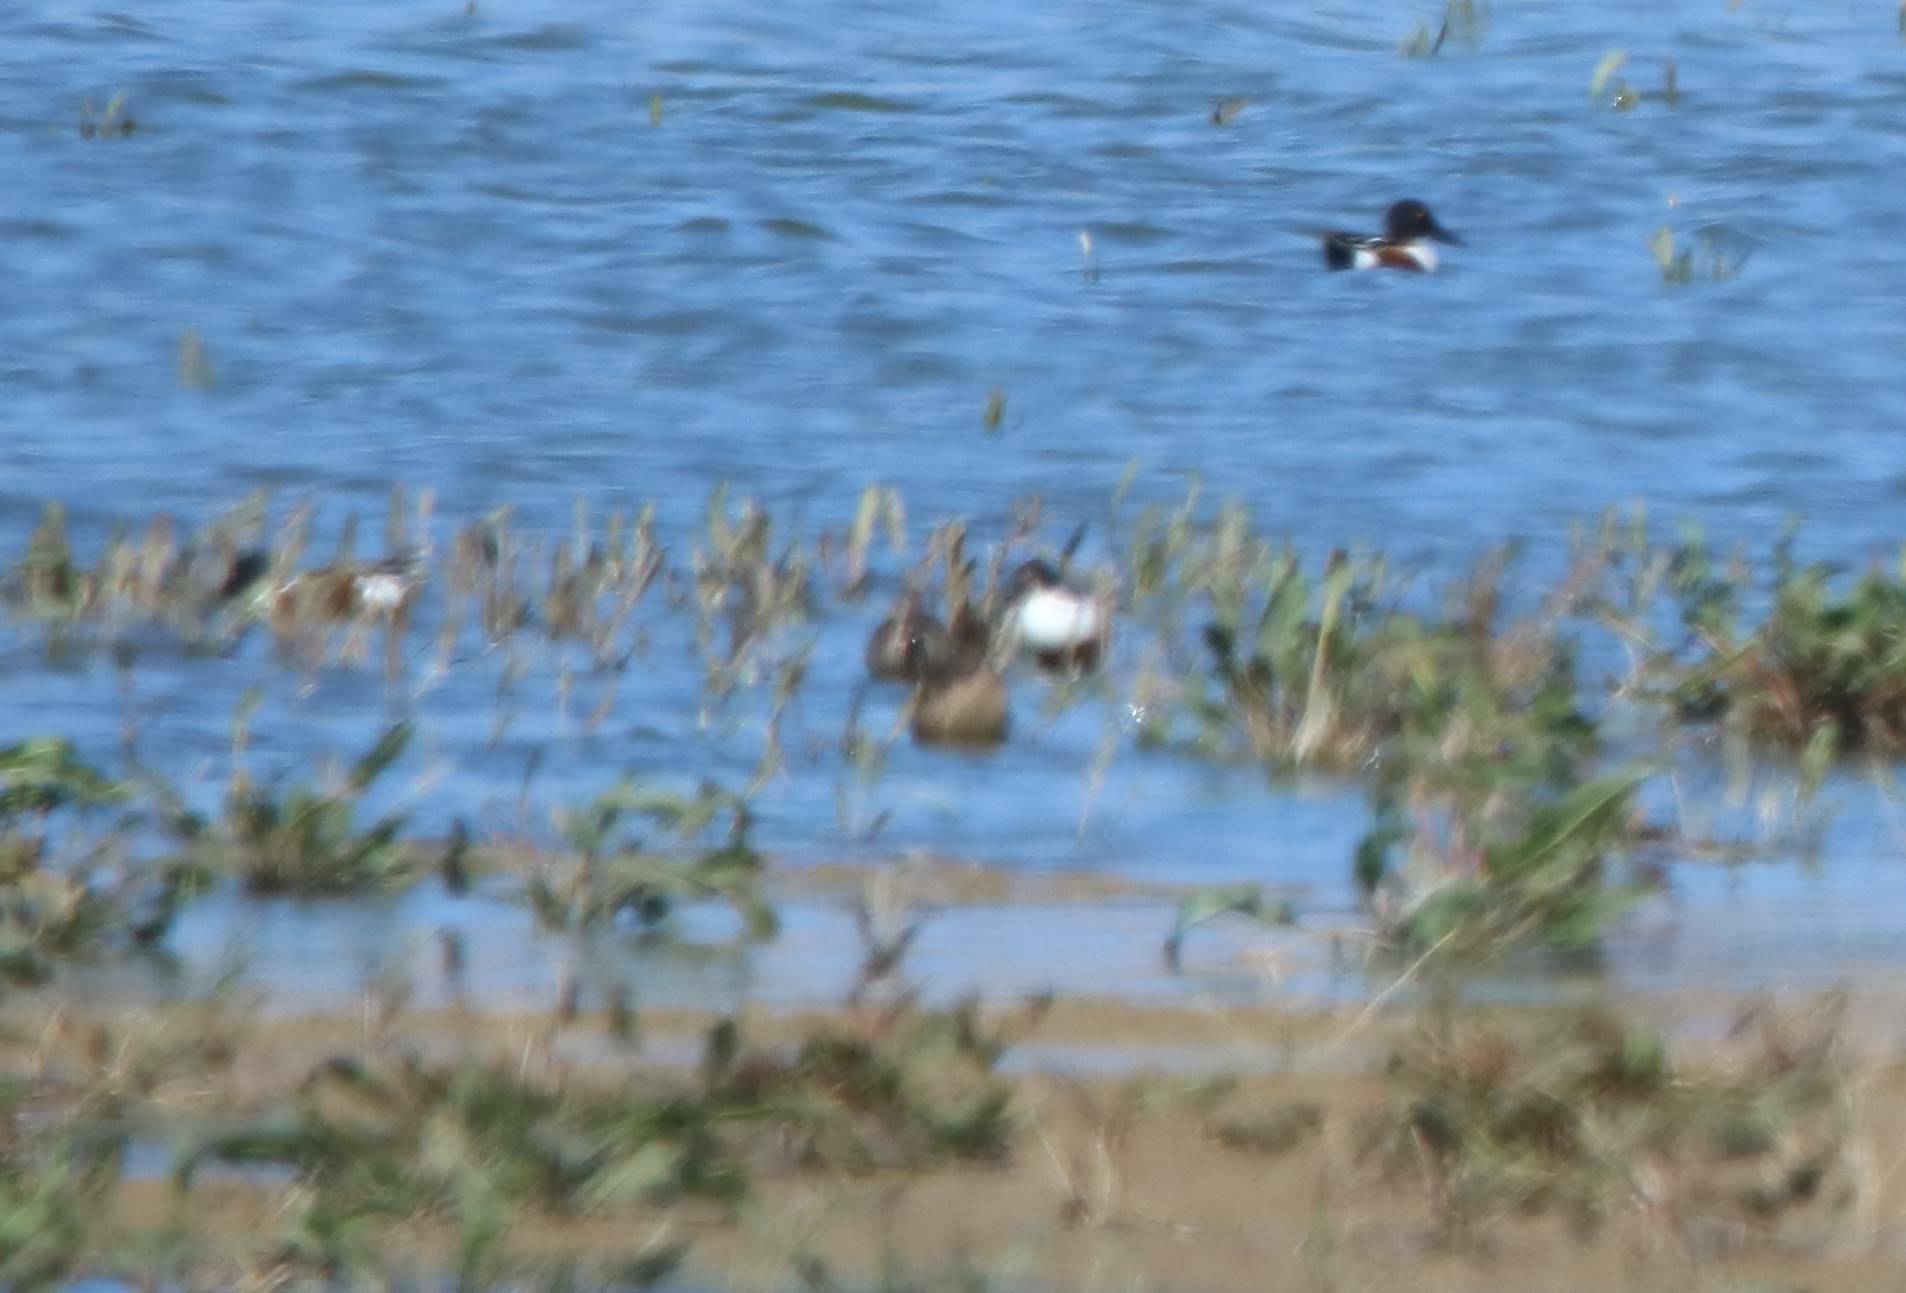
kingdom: Animalia
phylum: Chordata
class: Aves
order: Anseriformes
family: Anatidae
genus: Spatula
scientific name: Spatula clypeata
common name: Northern shoveler
